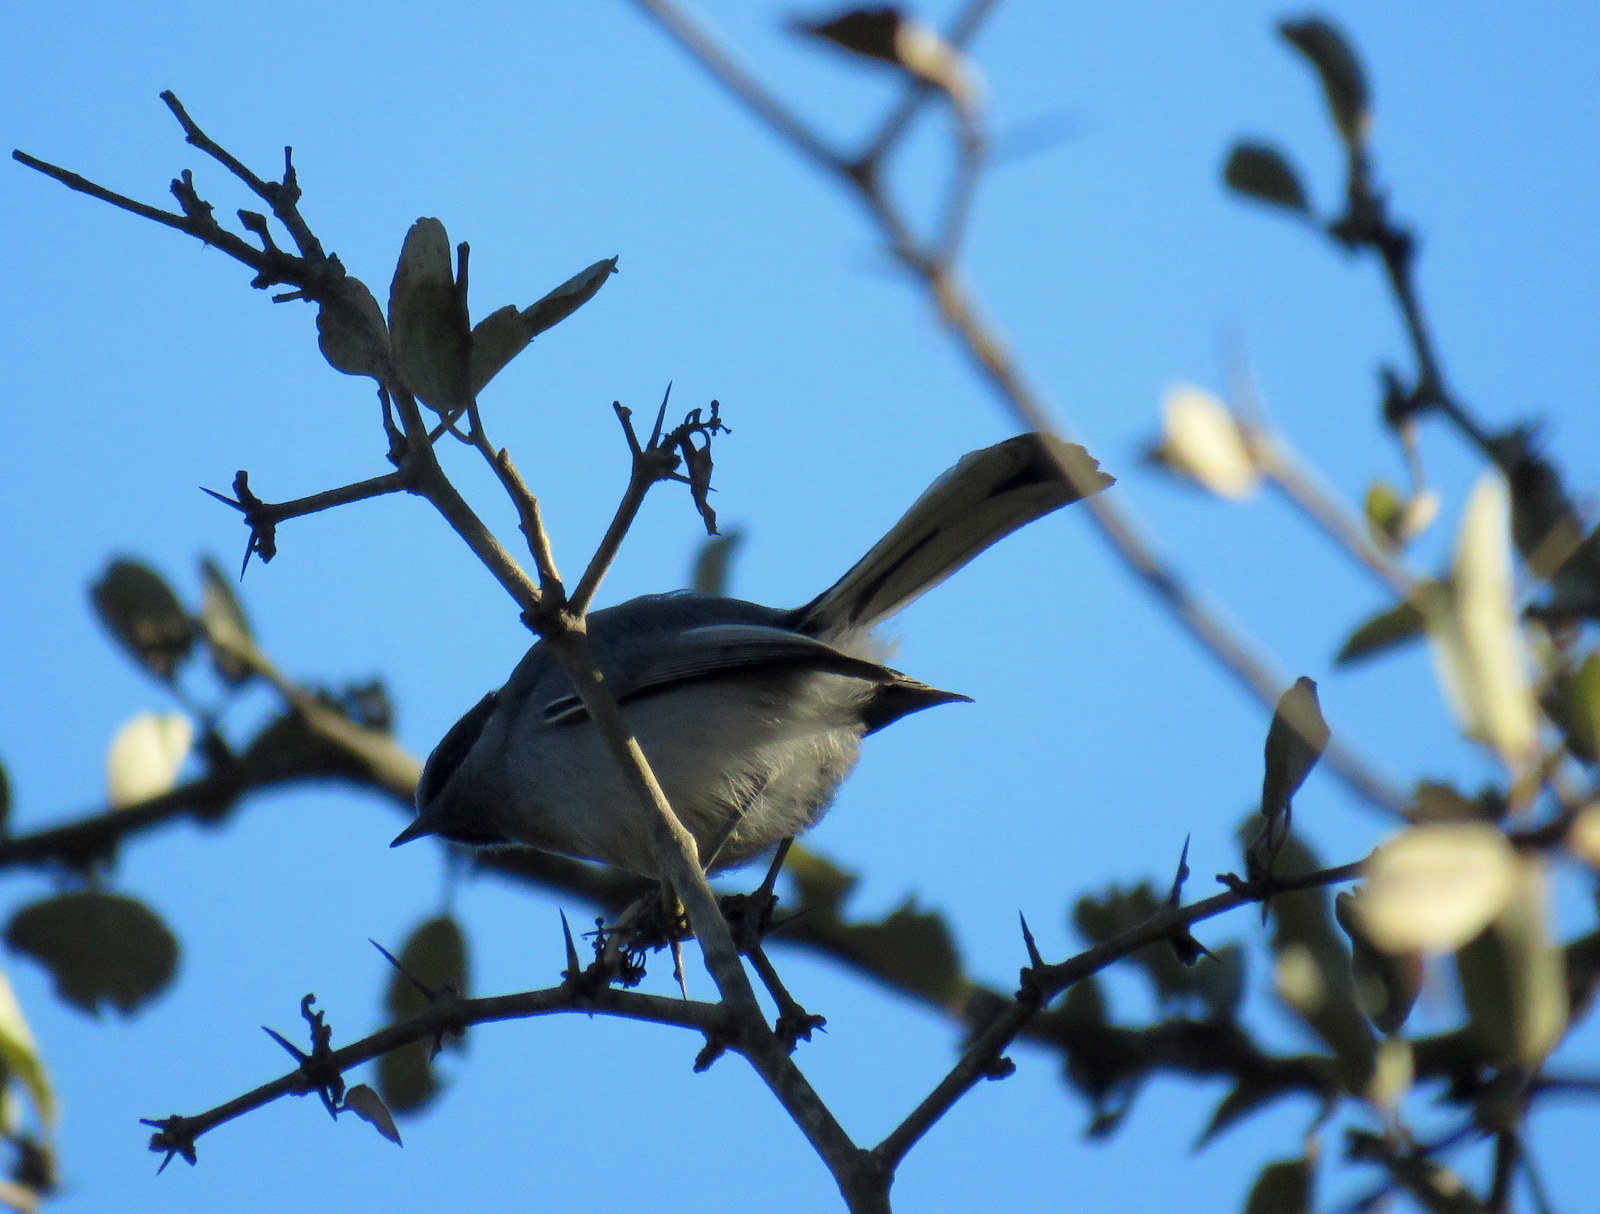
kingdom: Animalia
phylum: Chordata
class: Aves
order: Passeriformes
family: Polioptilidae
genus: Polioptila
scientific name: Polioptila dumicola
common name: Masked gnatcatcher
